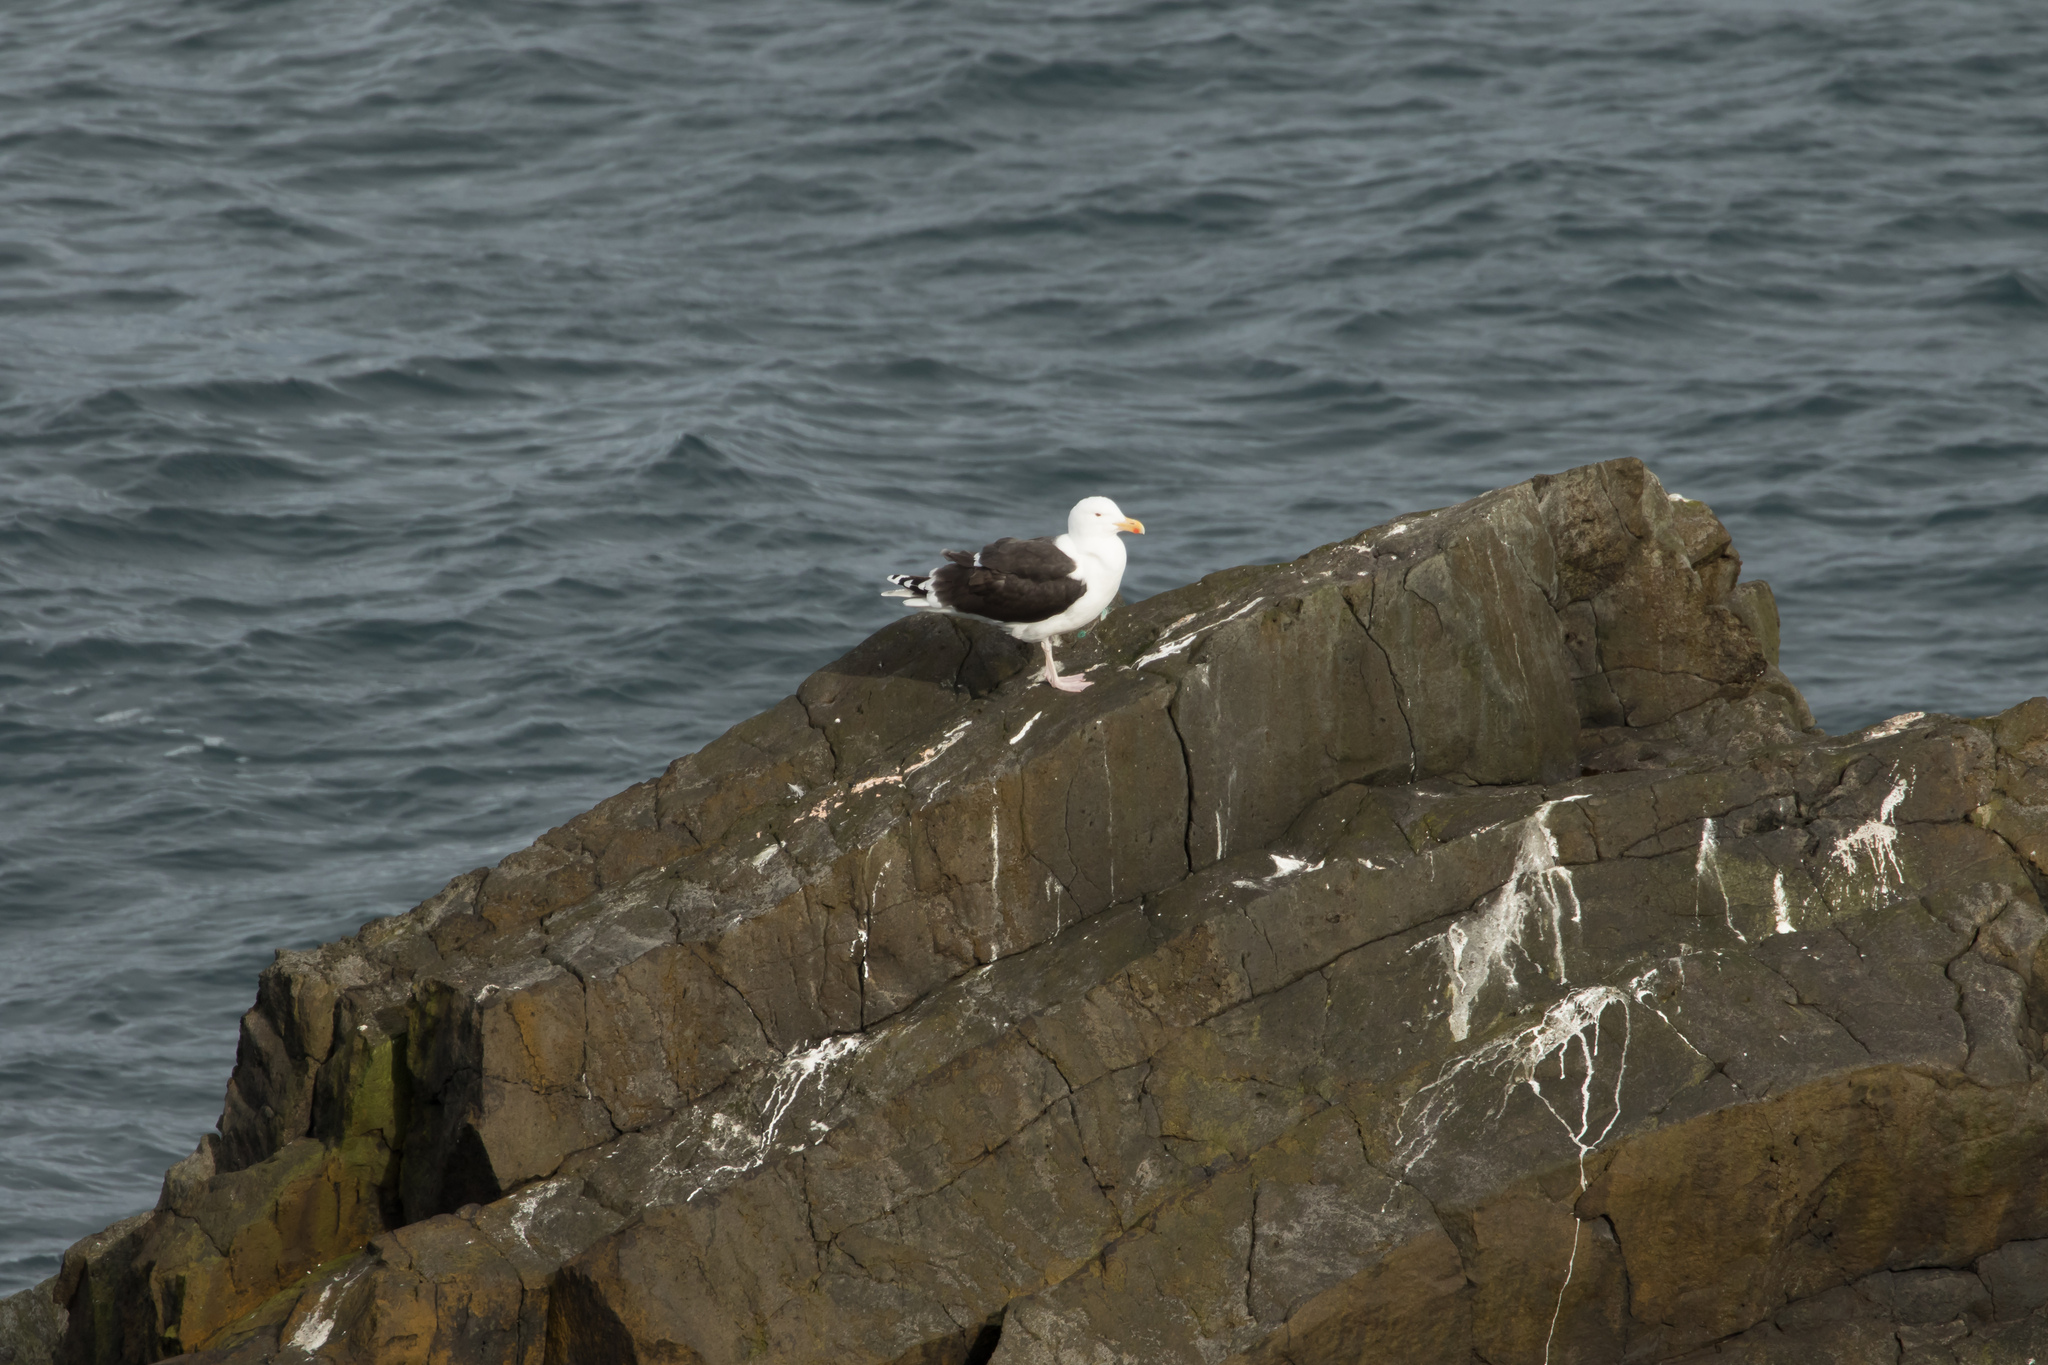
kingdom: Animalia
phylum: Chordata
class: Aves
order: Charadriiformes
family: Laridae
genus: Larus
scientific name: Larus marinus
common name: Great black-backed gull
